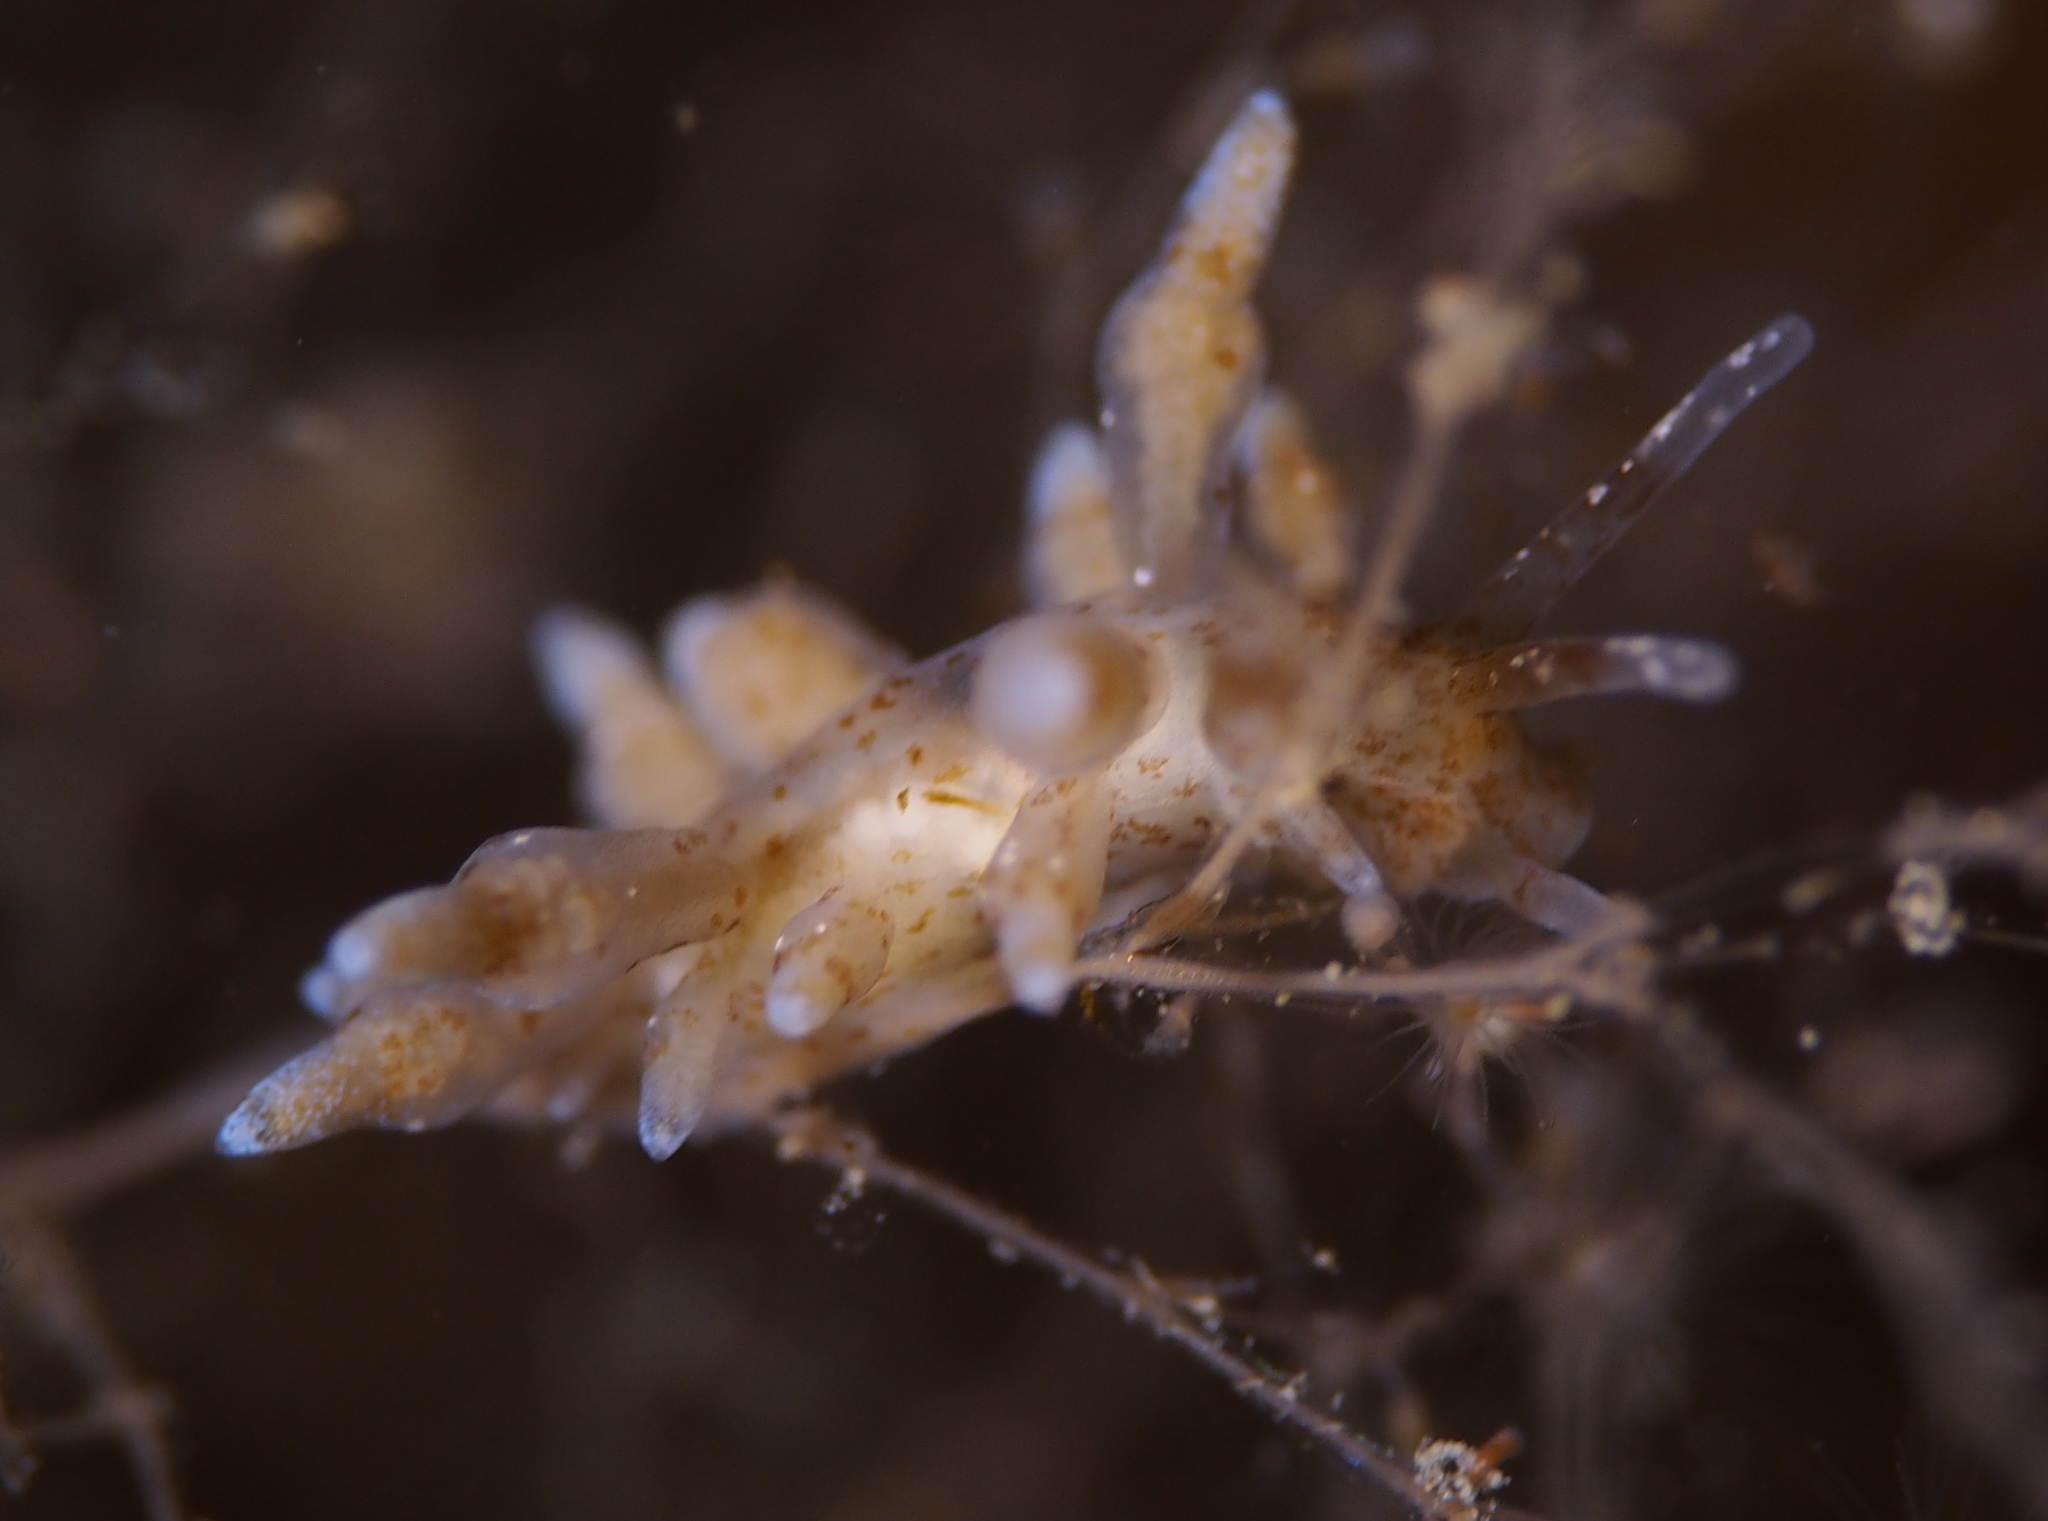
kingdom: Animalia
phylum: Mollusca
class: Gastropoda
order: Nudibranchia
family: Eubranchidae
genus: Eubranchus
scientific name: Eubranchus exiguus
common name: Balloon aeolis
